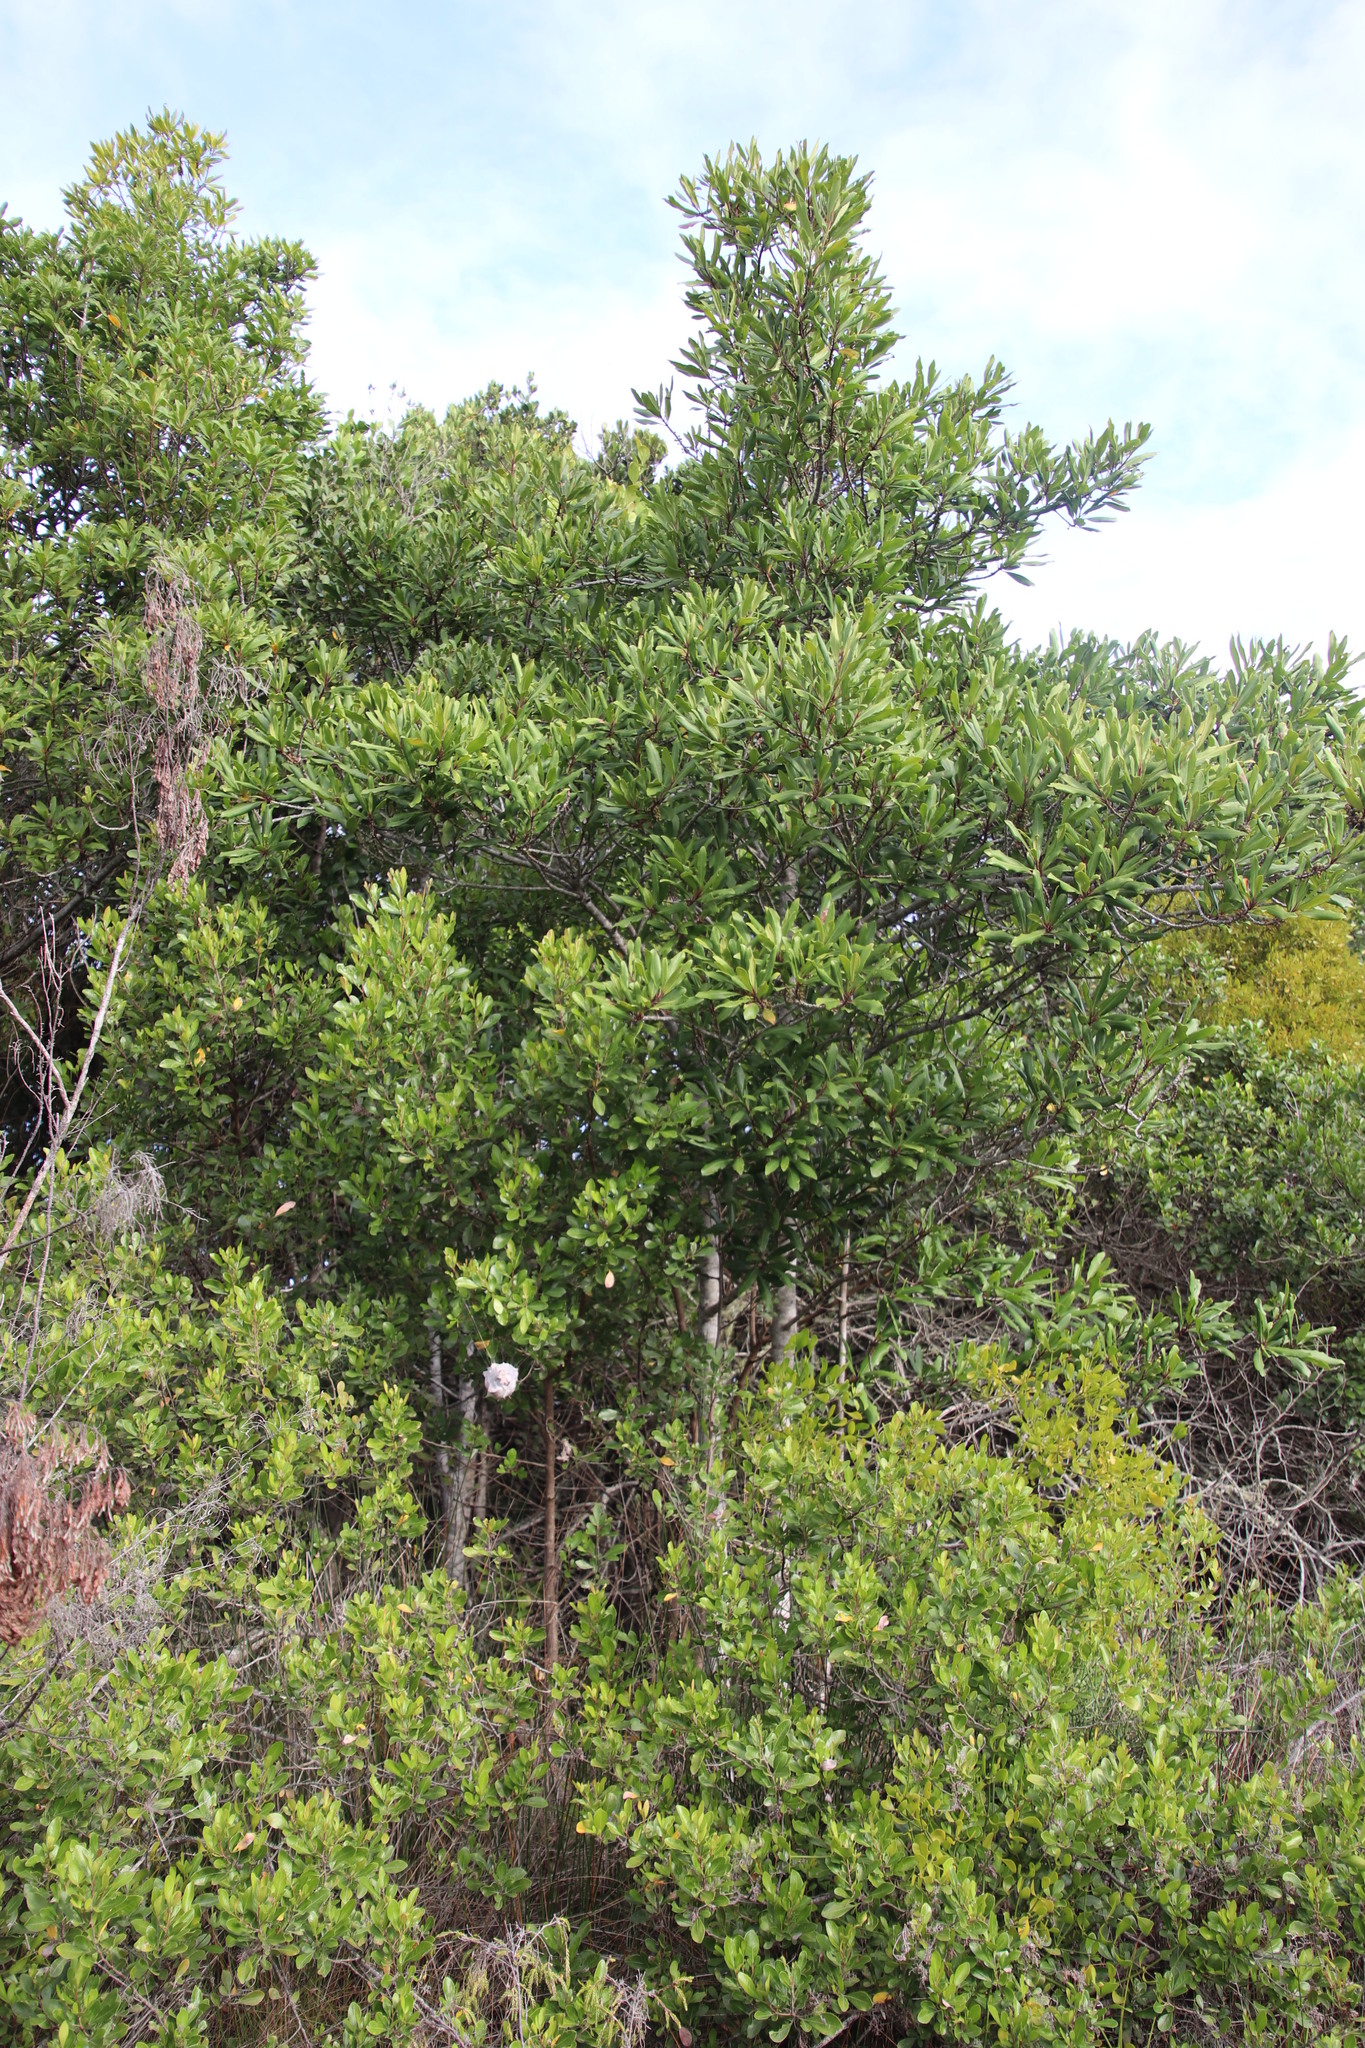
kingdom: Plantae
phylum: Tracheophyta
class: Magnoliopsida
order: Ericales
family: Primulaceae
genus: Myrsine
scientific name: Myrsine melanophloeos
